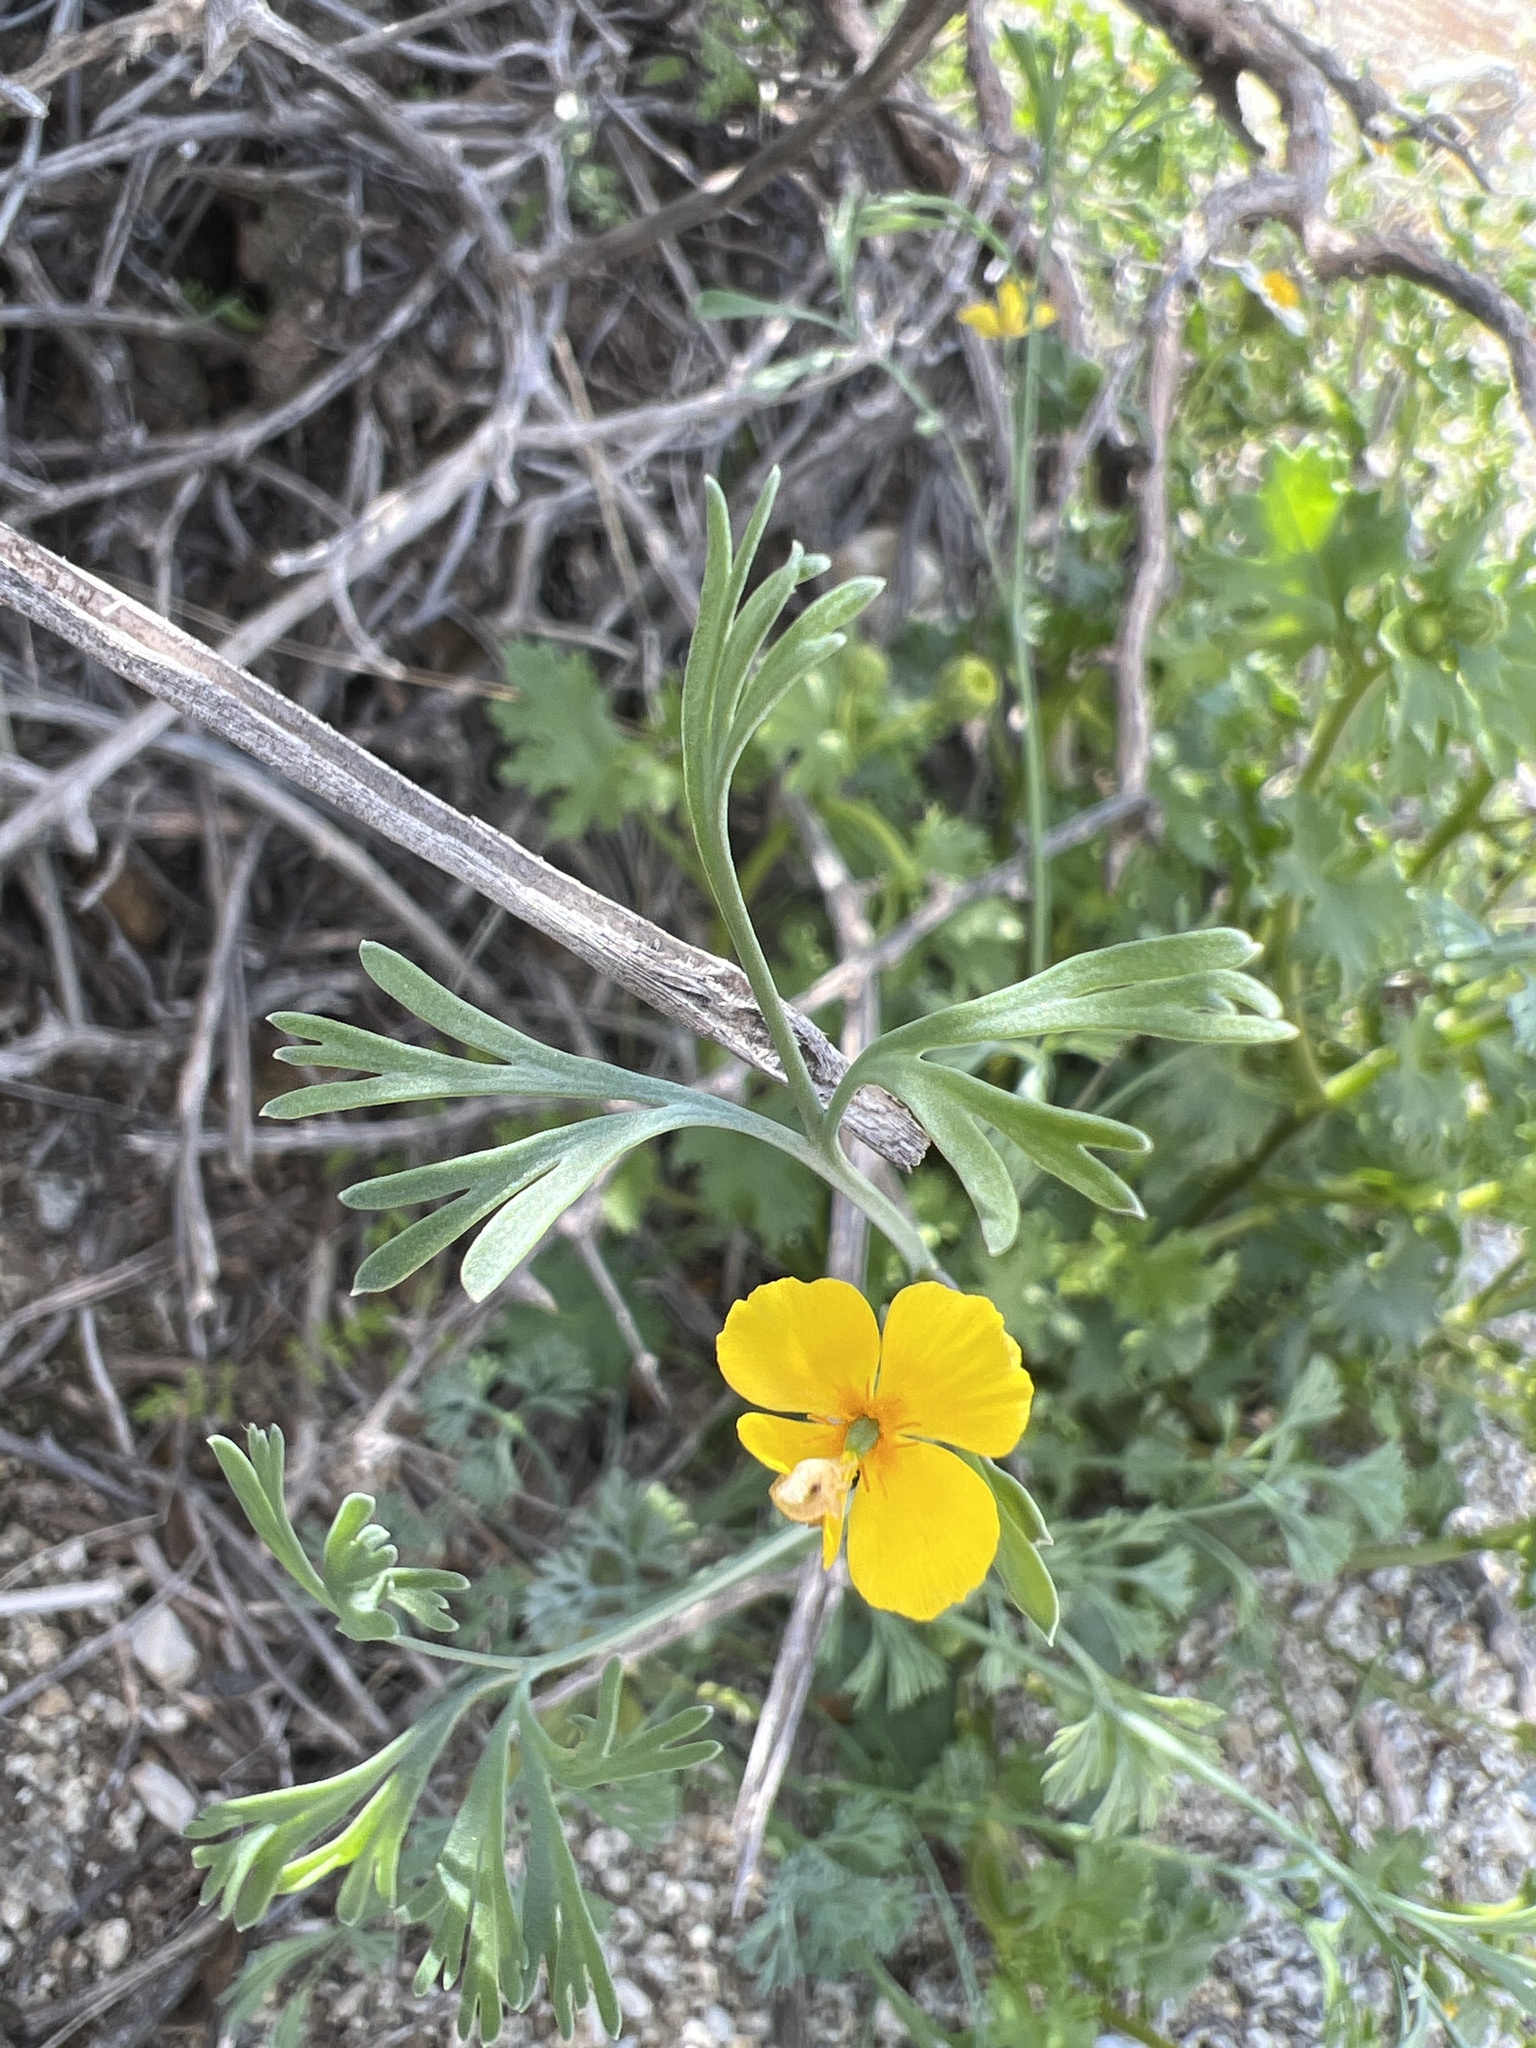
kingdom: Plantae
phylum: Tracheophyta
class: Magnoliopsida
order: Ranunculales
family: Papaveraceae
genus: Eschscholzia
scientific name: Eschscholzia minutiflora
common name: Small-flower california-poppy
